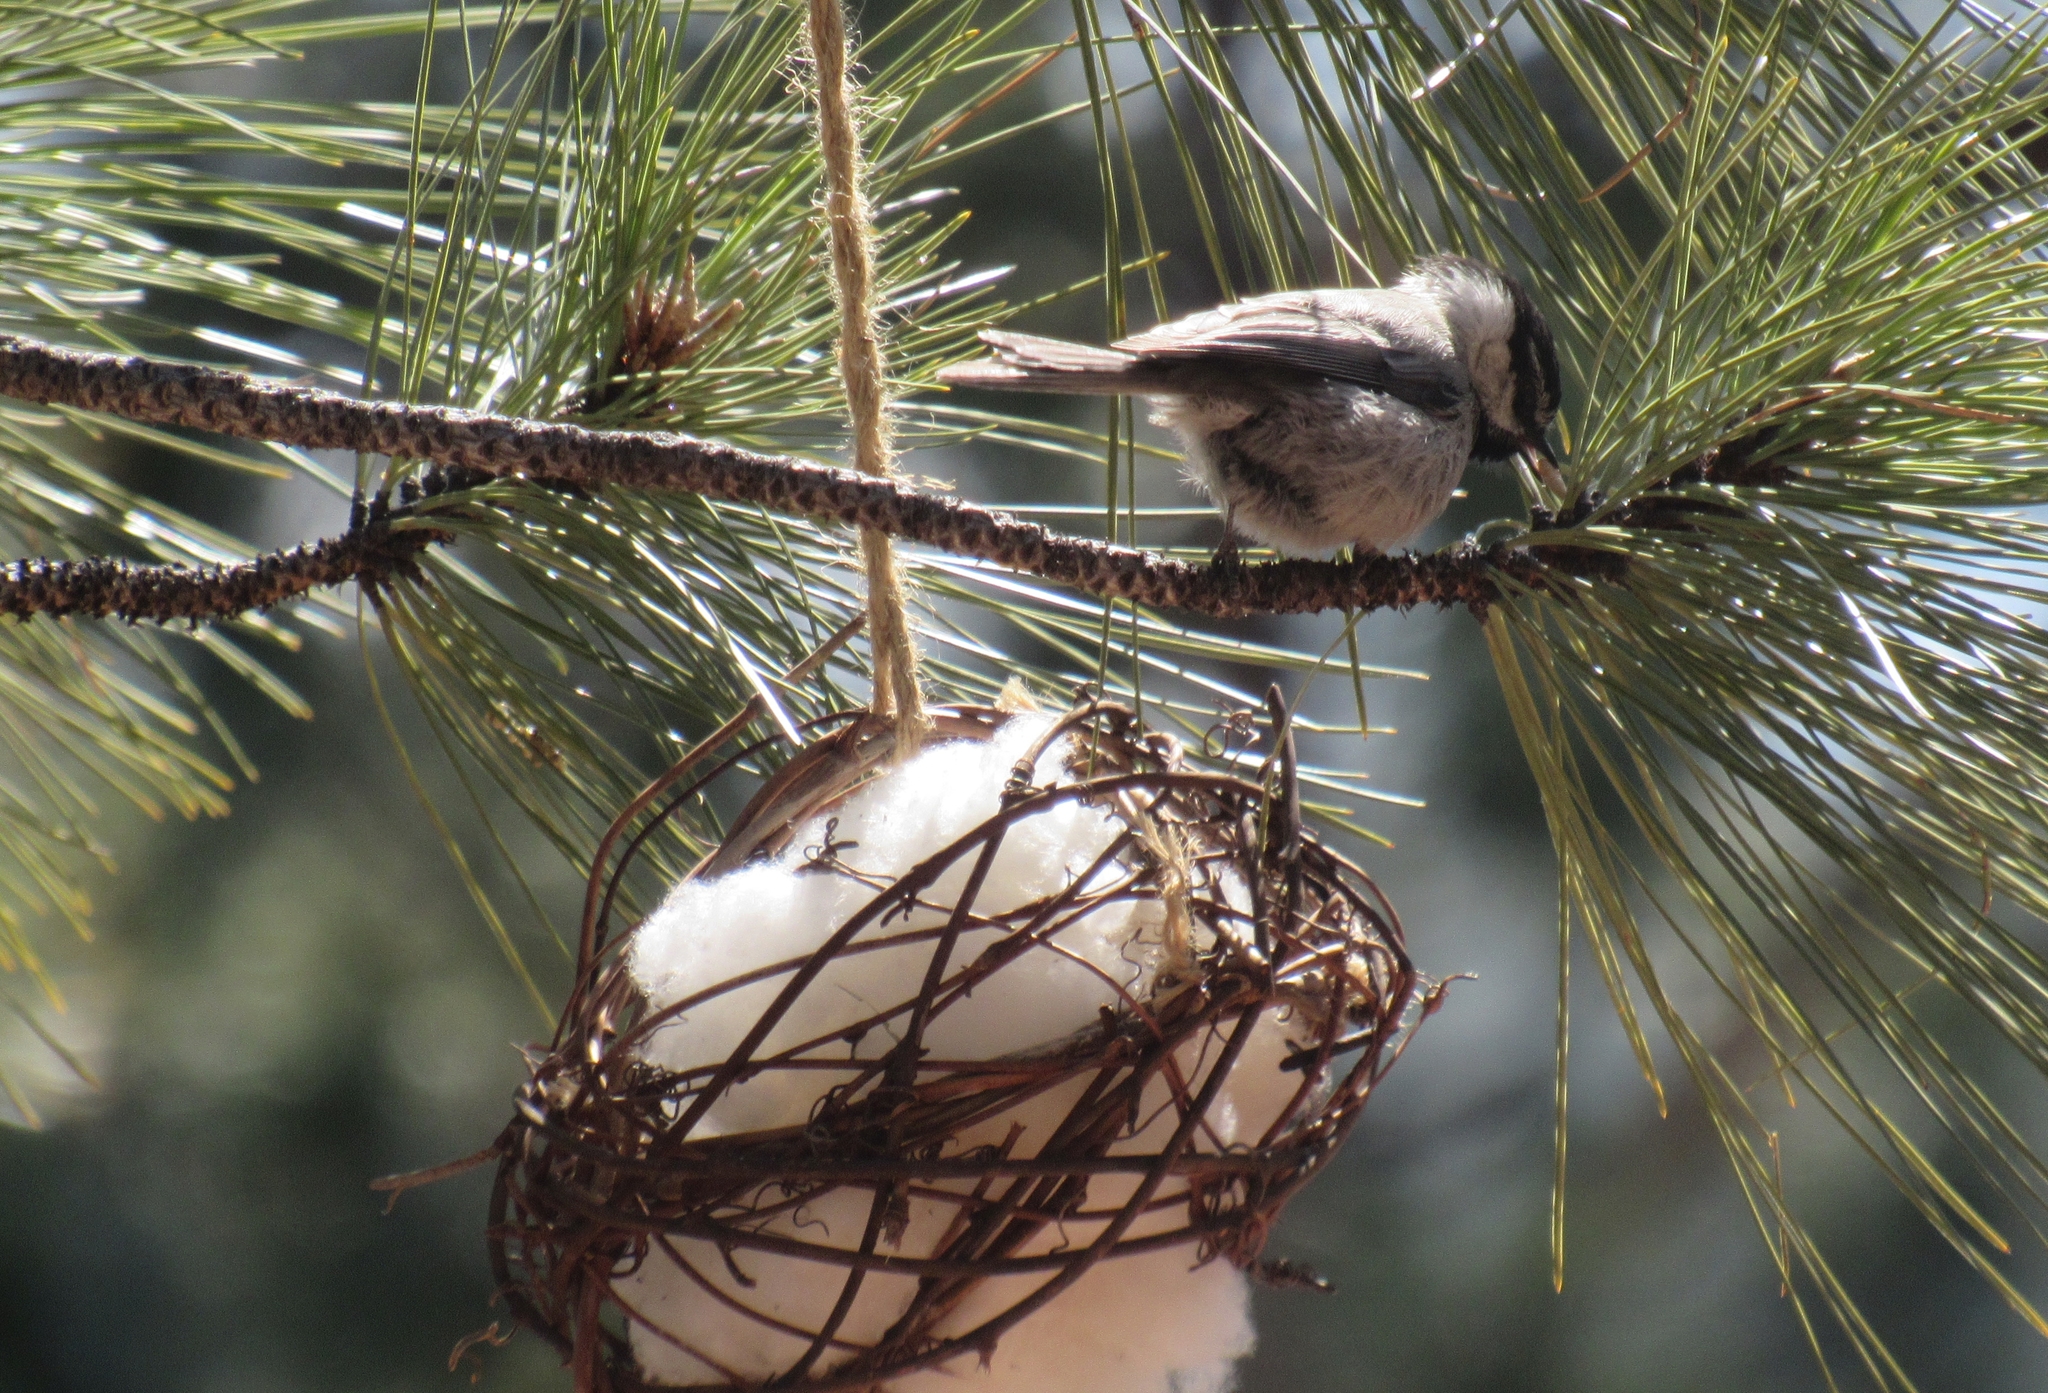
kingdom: Animalia
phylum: Chordata
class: Aves
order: Passeriformes
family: Paridae
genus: Poecile
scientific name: Poecile gambeli
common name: Mountain chickadee
